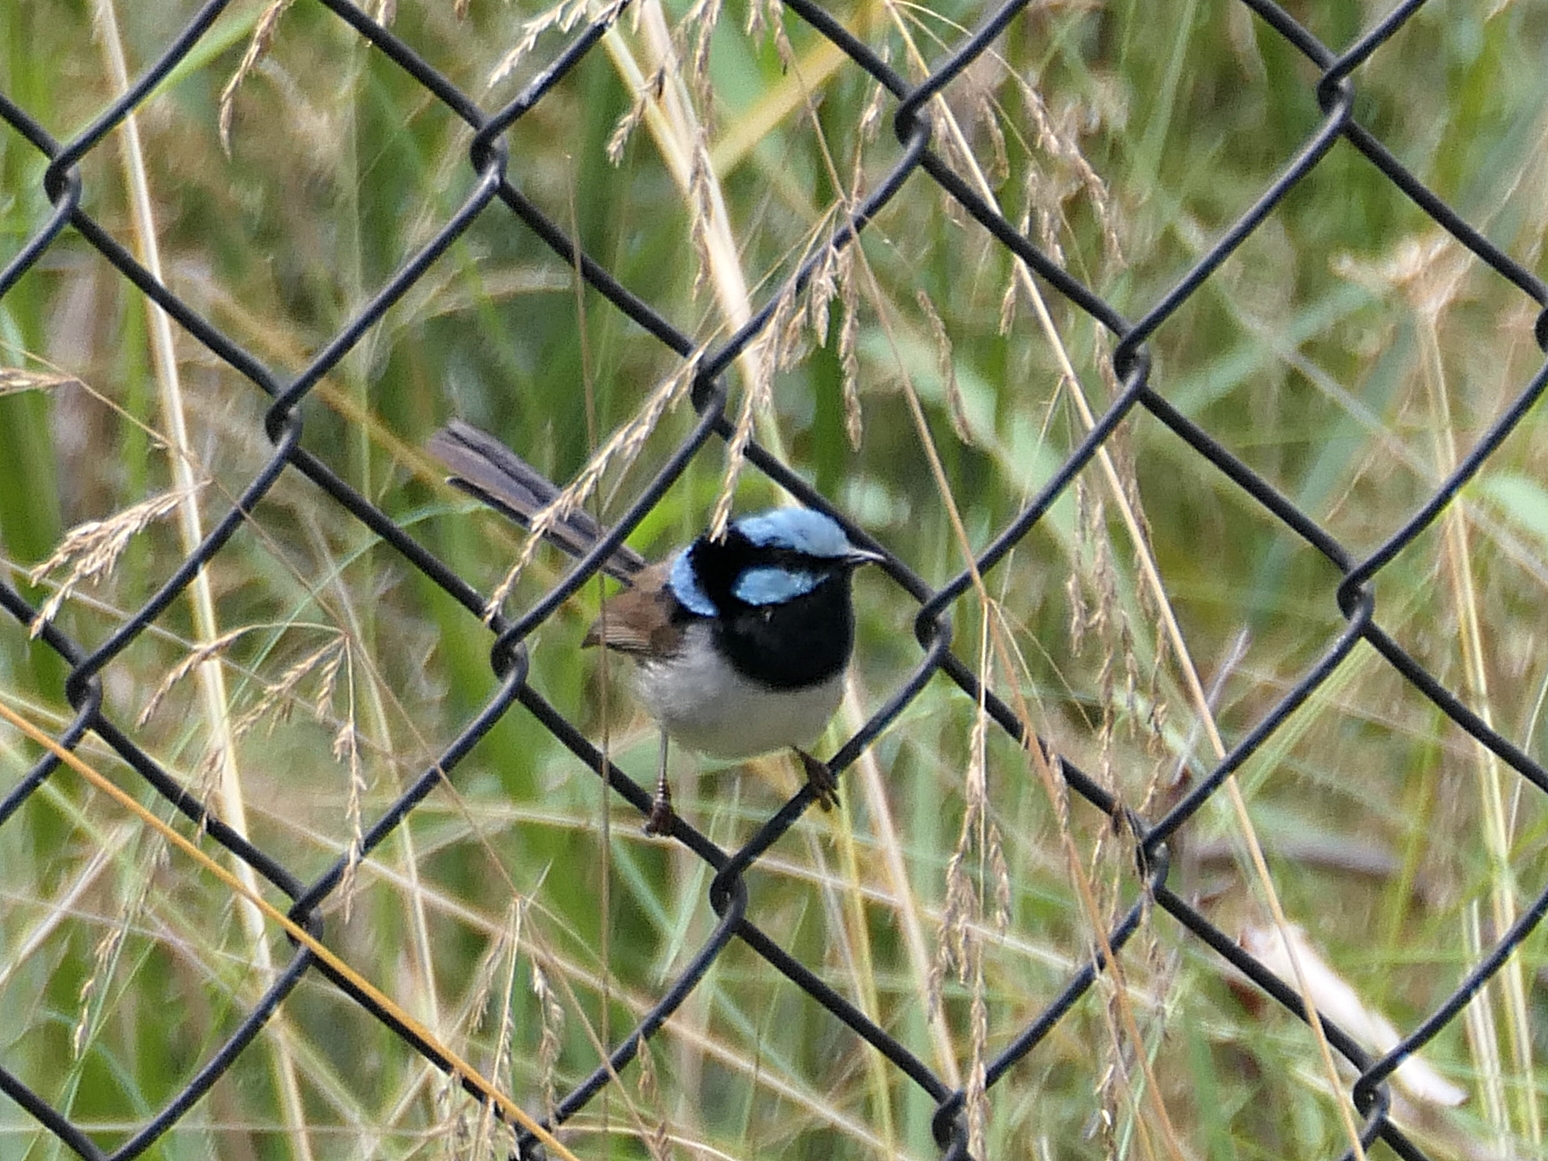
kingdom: Animalia
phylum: Chordata
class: Aves
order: Passeriformes
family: Maluridae
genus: Malurus
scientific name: Malurus cyaneus
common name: Superb fairywren
